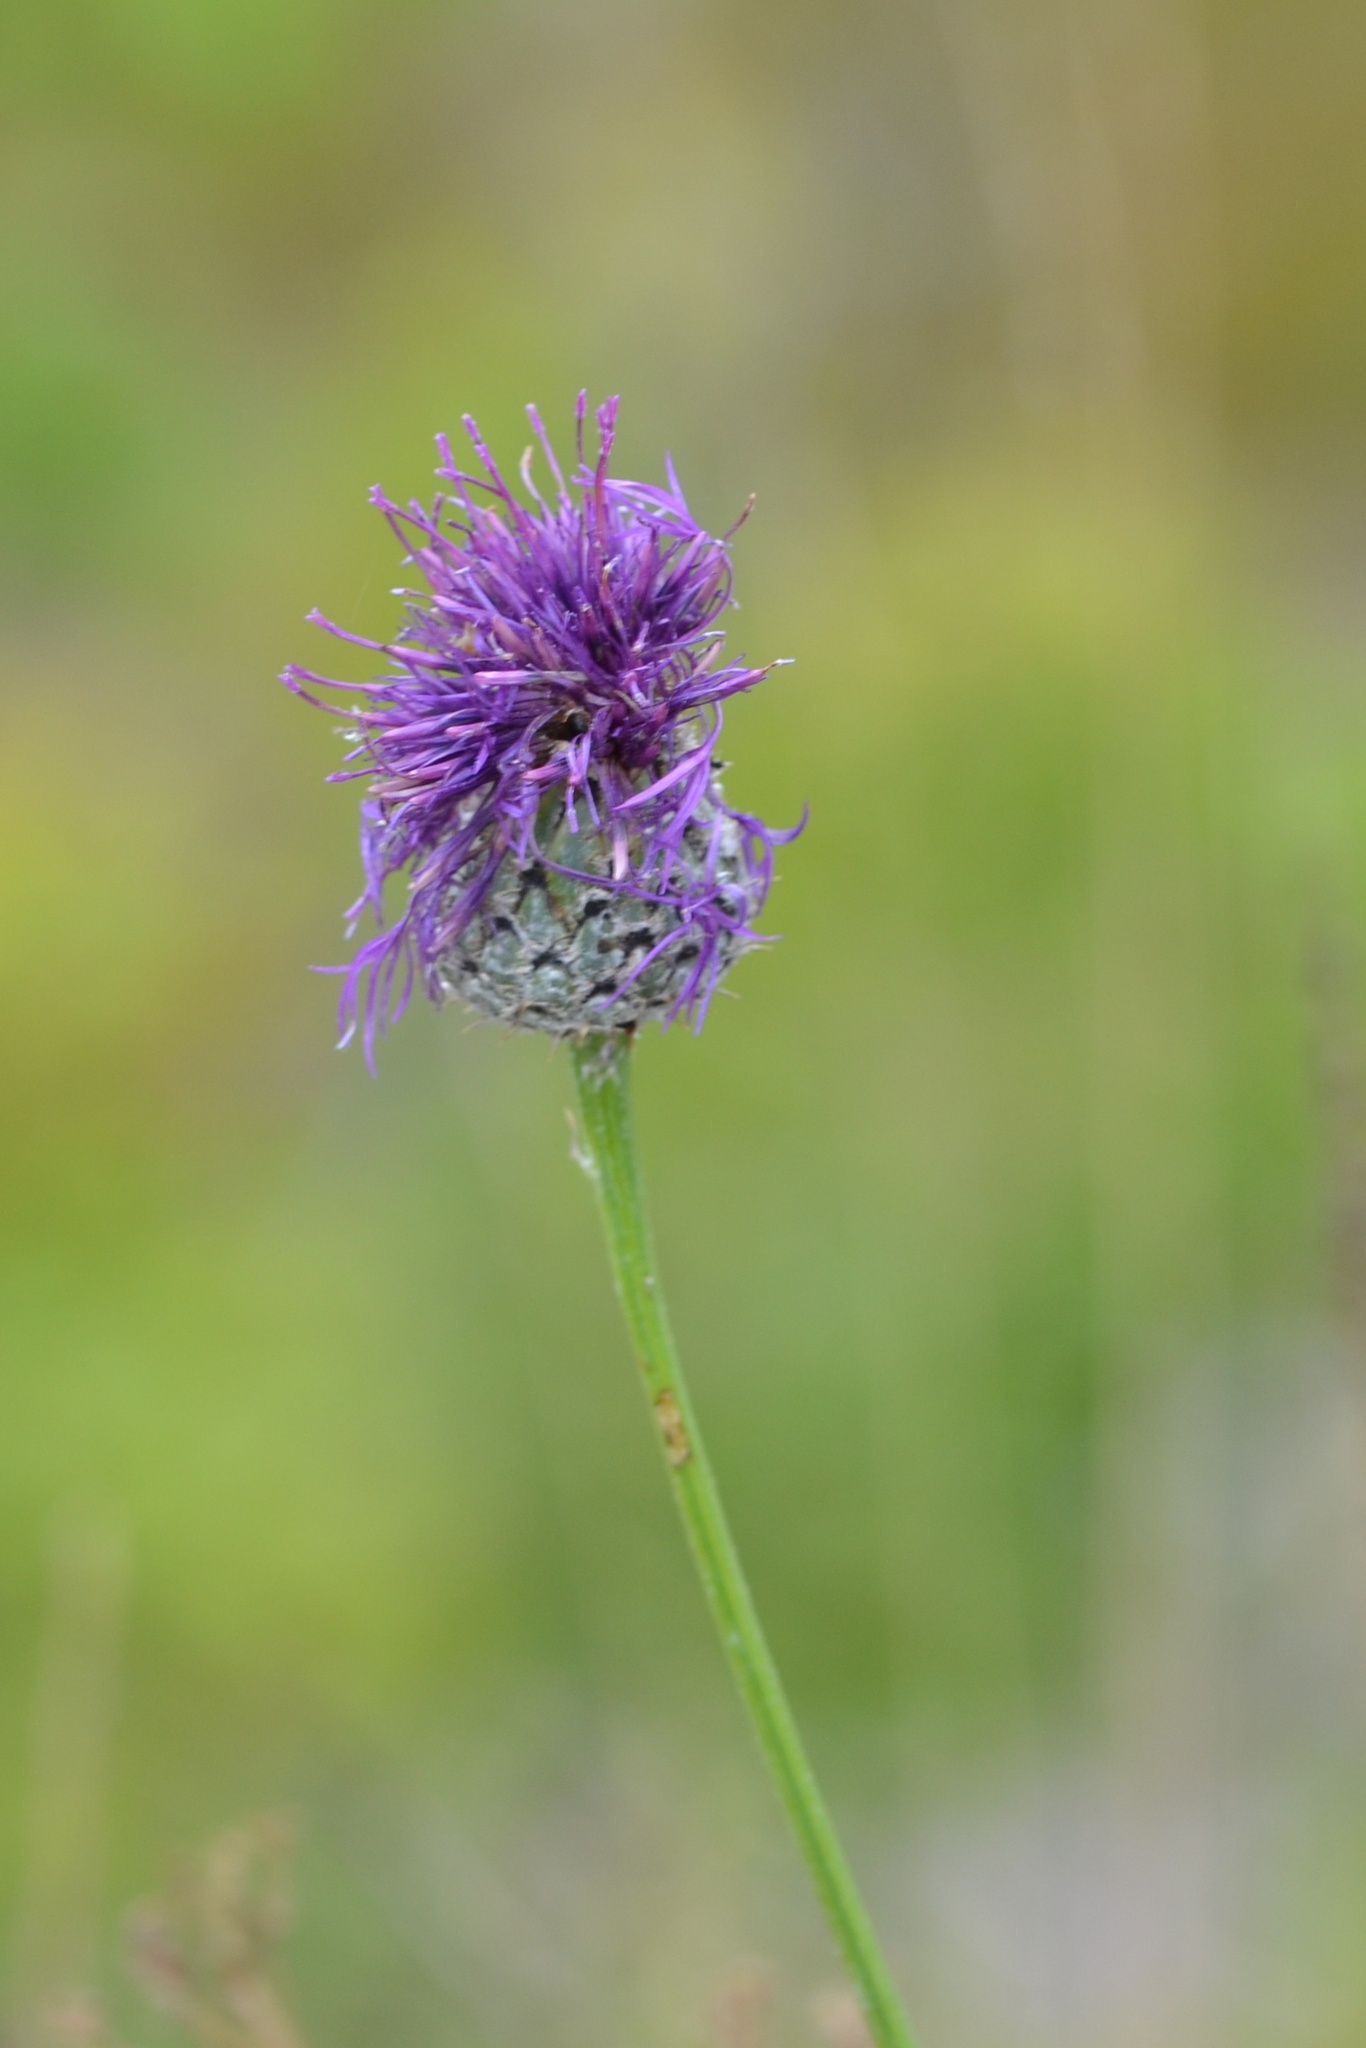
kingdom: Plantae
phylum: Tracheophyta
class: Magnoliopsida
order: Asterales
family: Asteraceae
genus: Centaurea
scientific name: Centaurea scabiosa
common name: Greater knapweed
